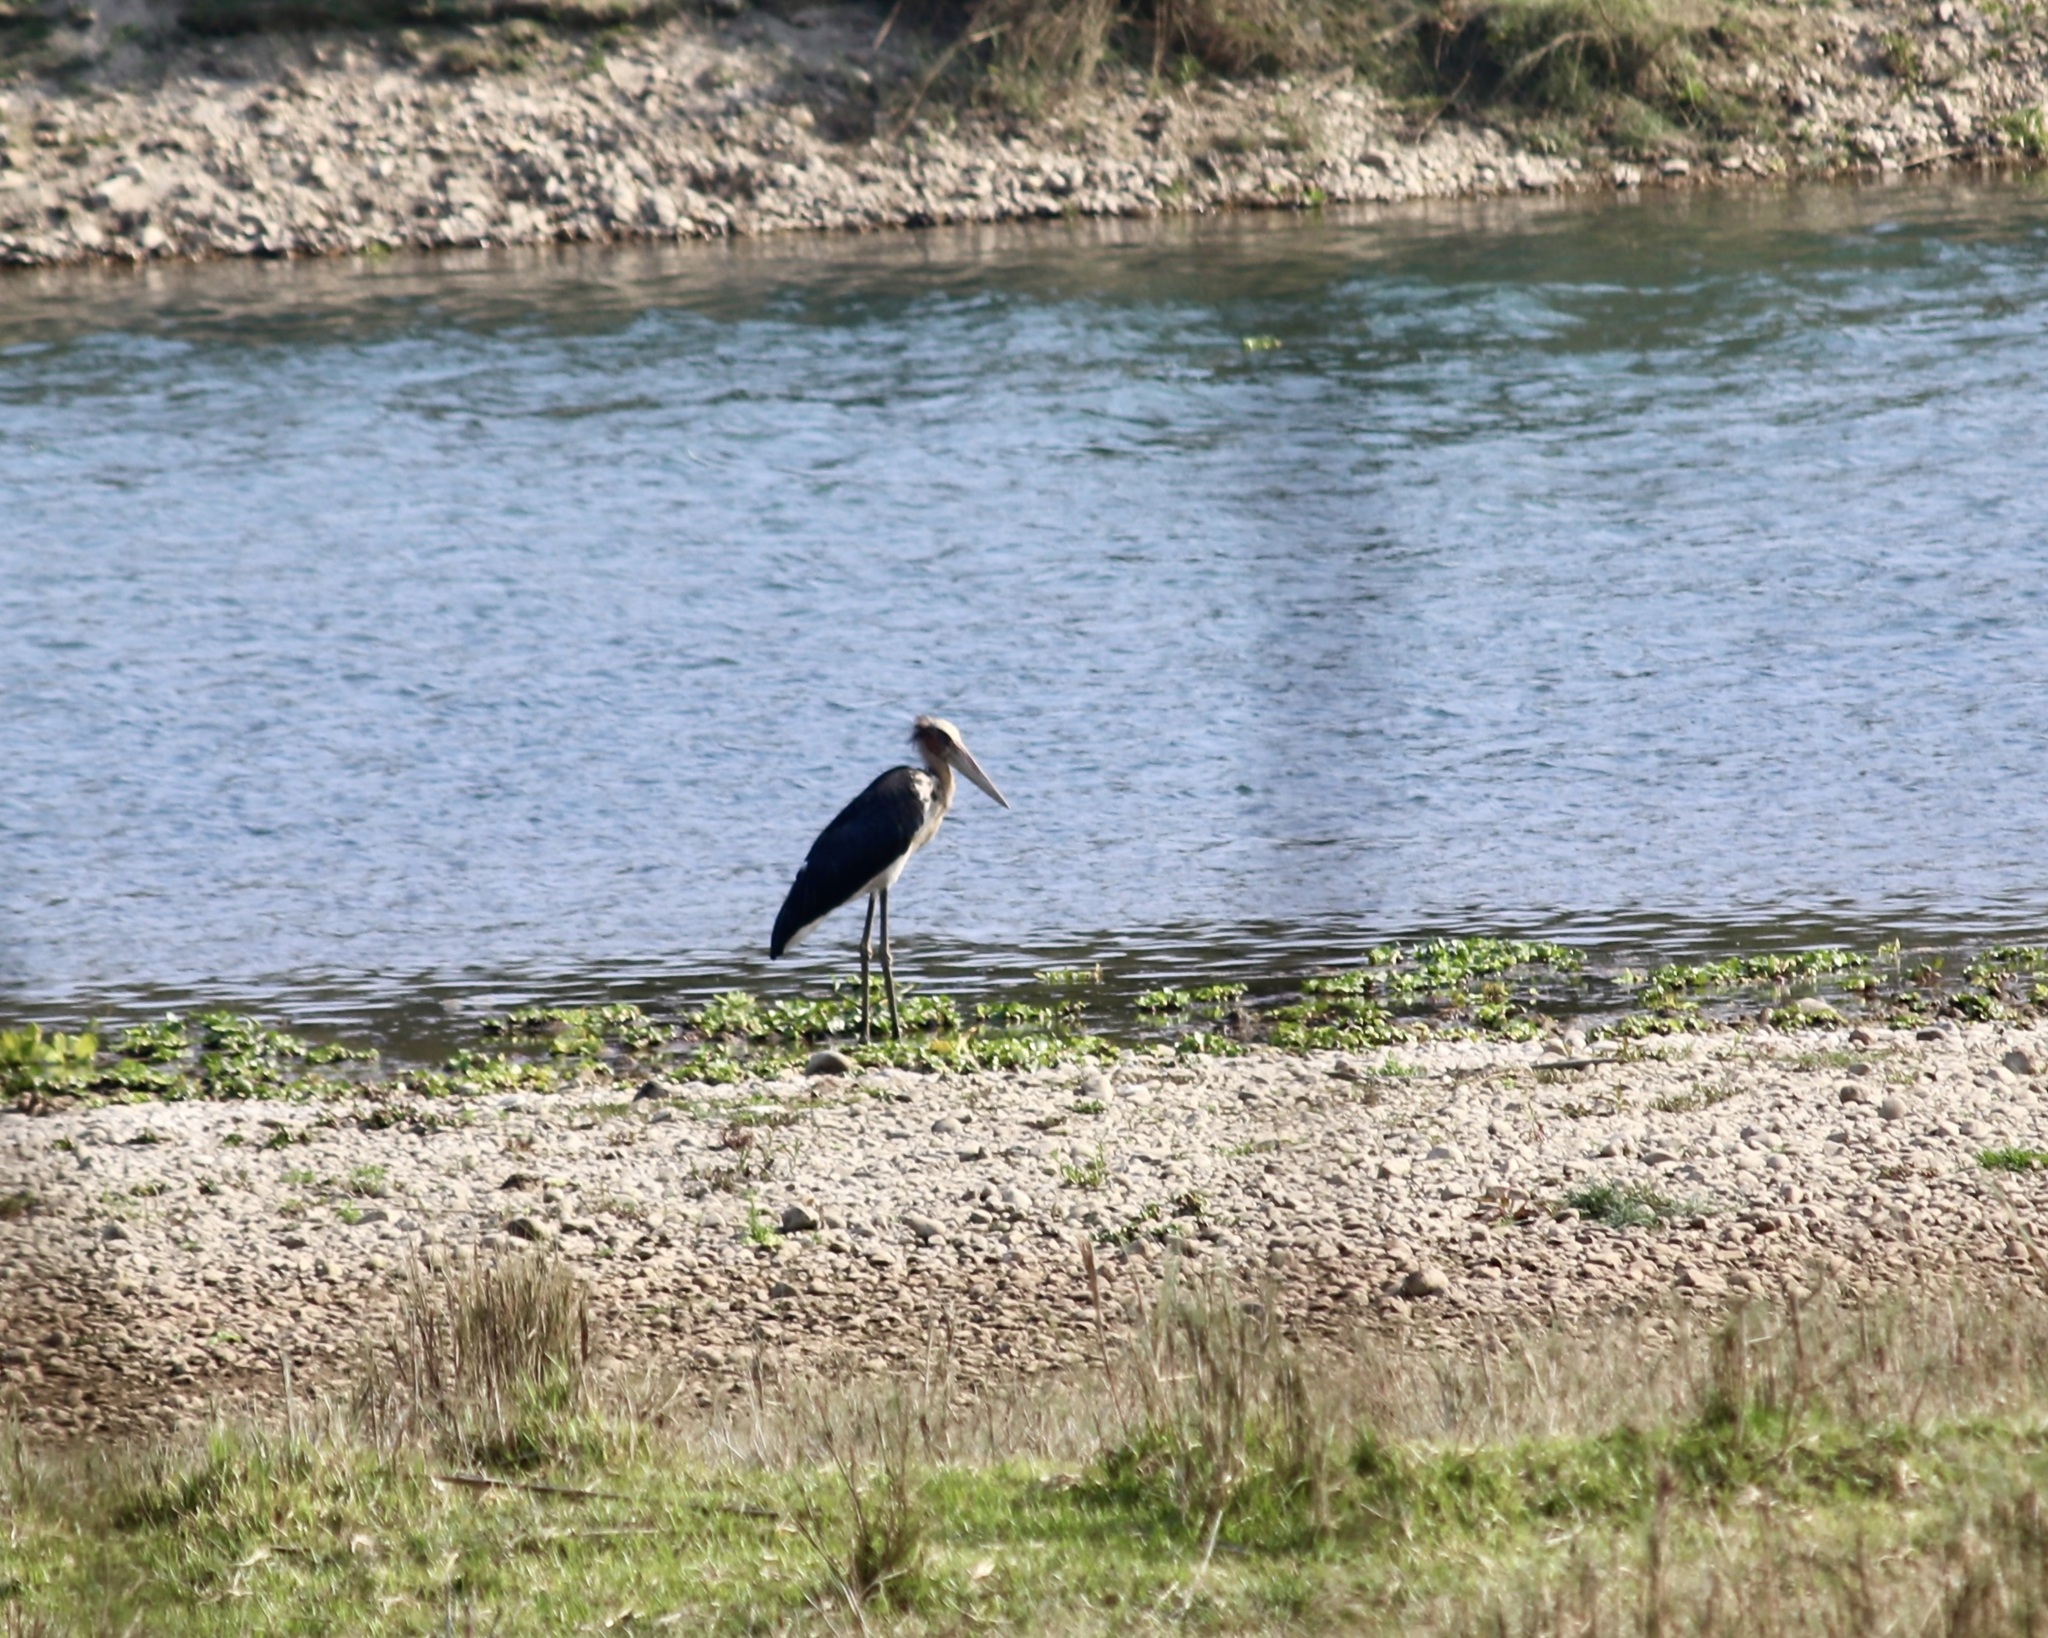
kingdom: Animalia
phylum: Chordata
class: Aves
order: Ciconiiformes
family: Ciconiidae
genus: Leptoptilos
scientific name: Leptoptilos javanicus
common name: Lesser adjutant
